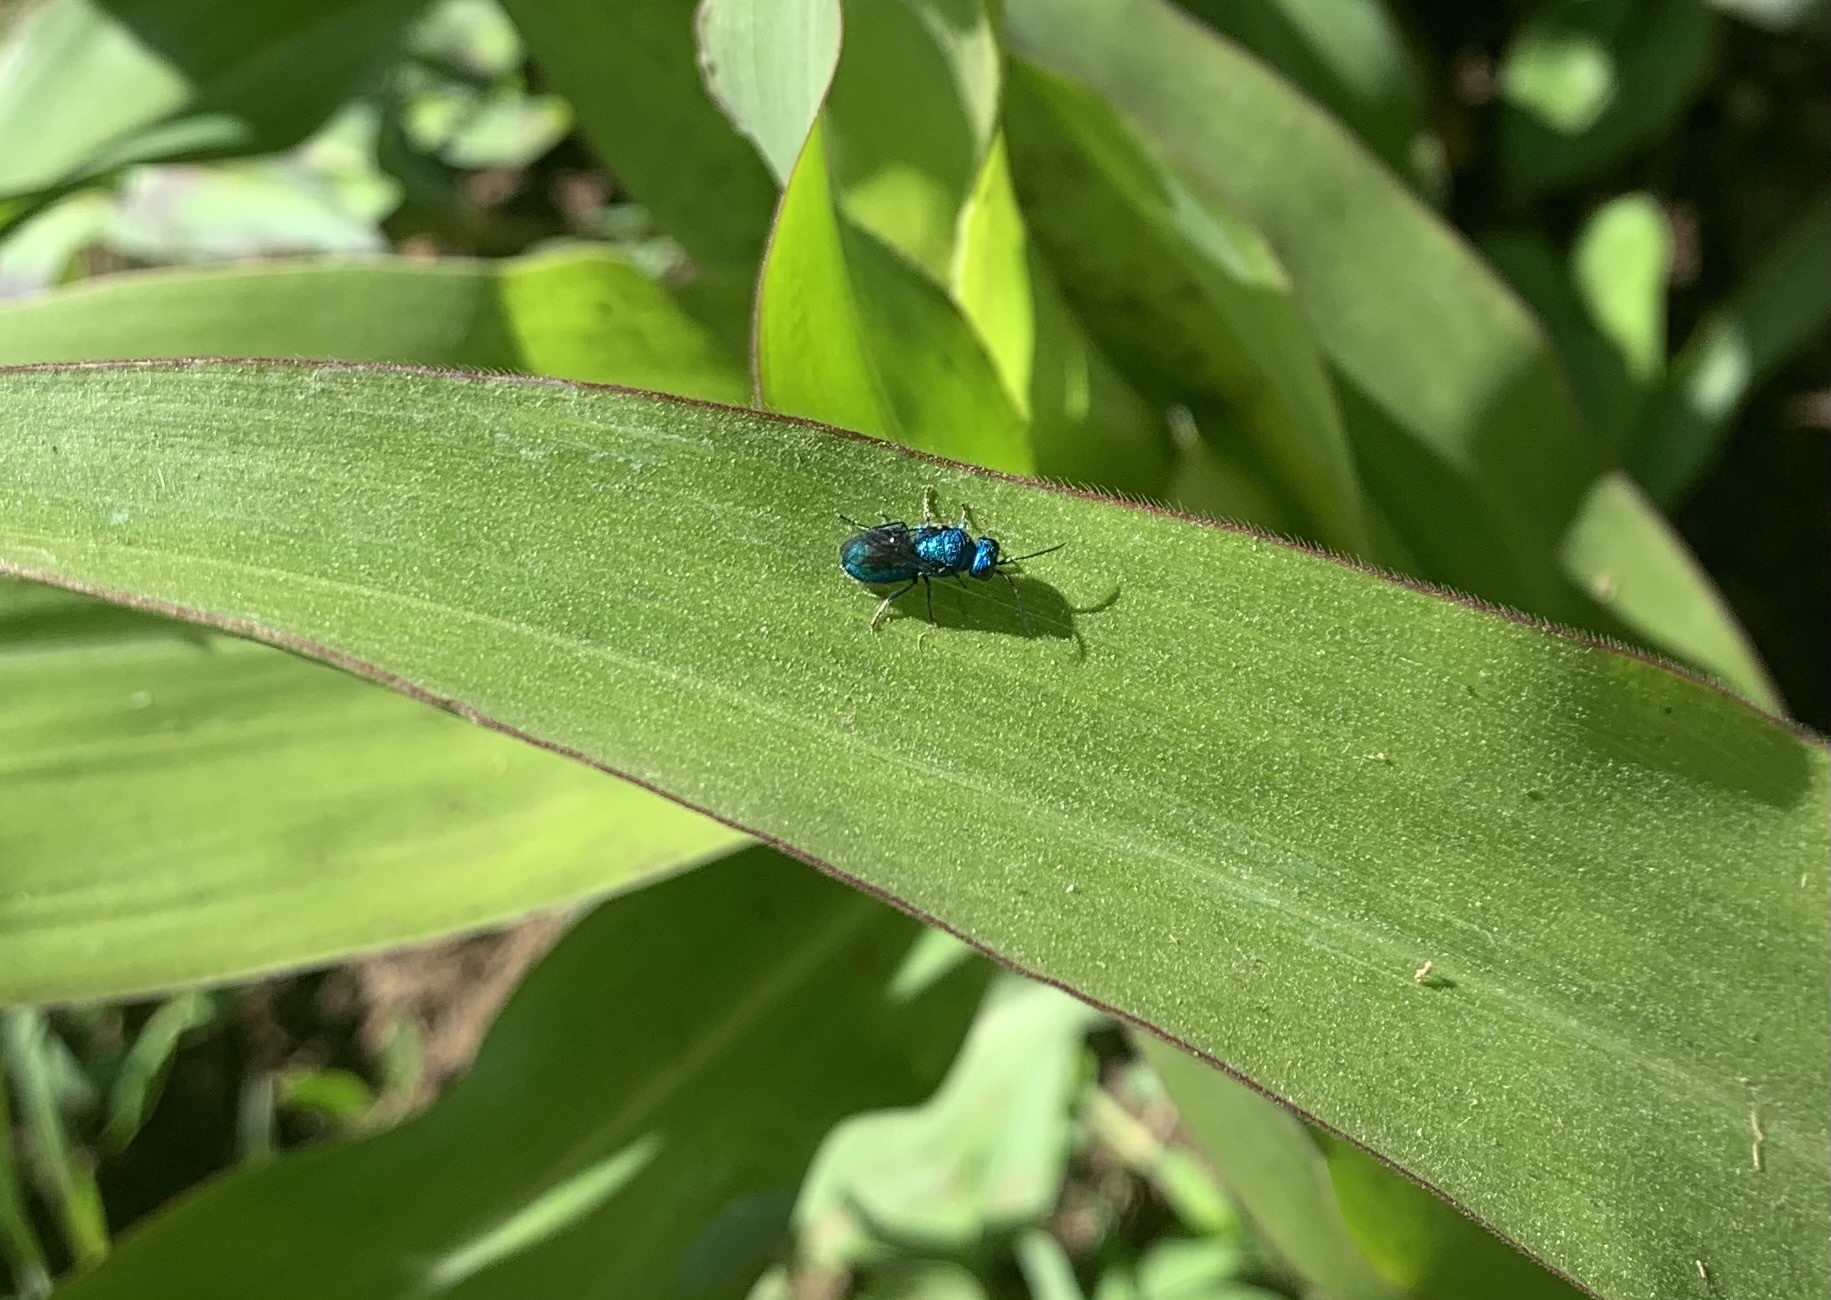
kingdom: Animalia
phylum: Arthropoda
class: Insecta
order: Hymenoptera
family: Chrysididae
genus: Holopyga
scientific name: Holopyga
